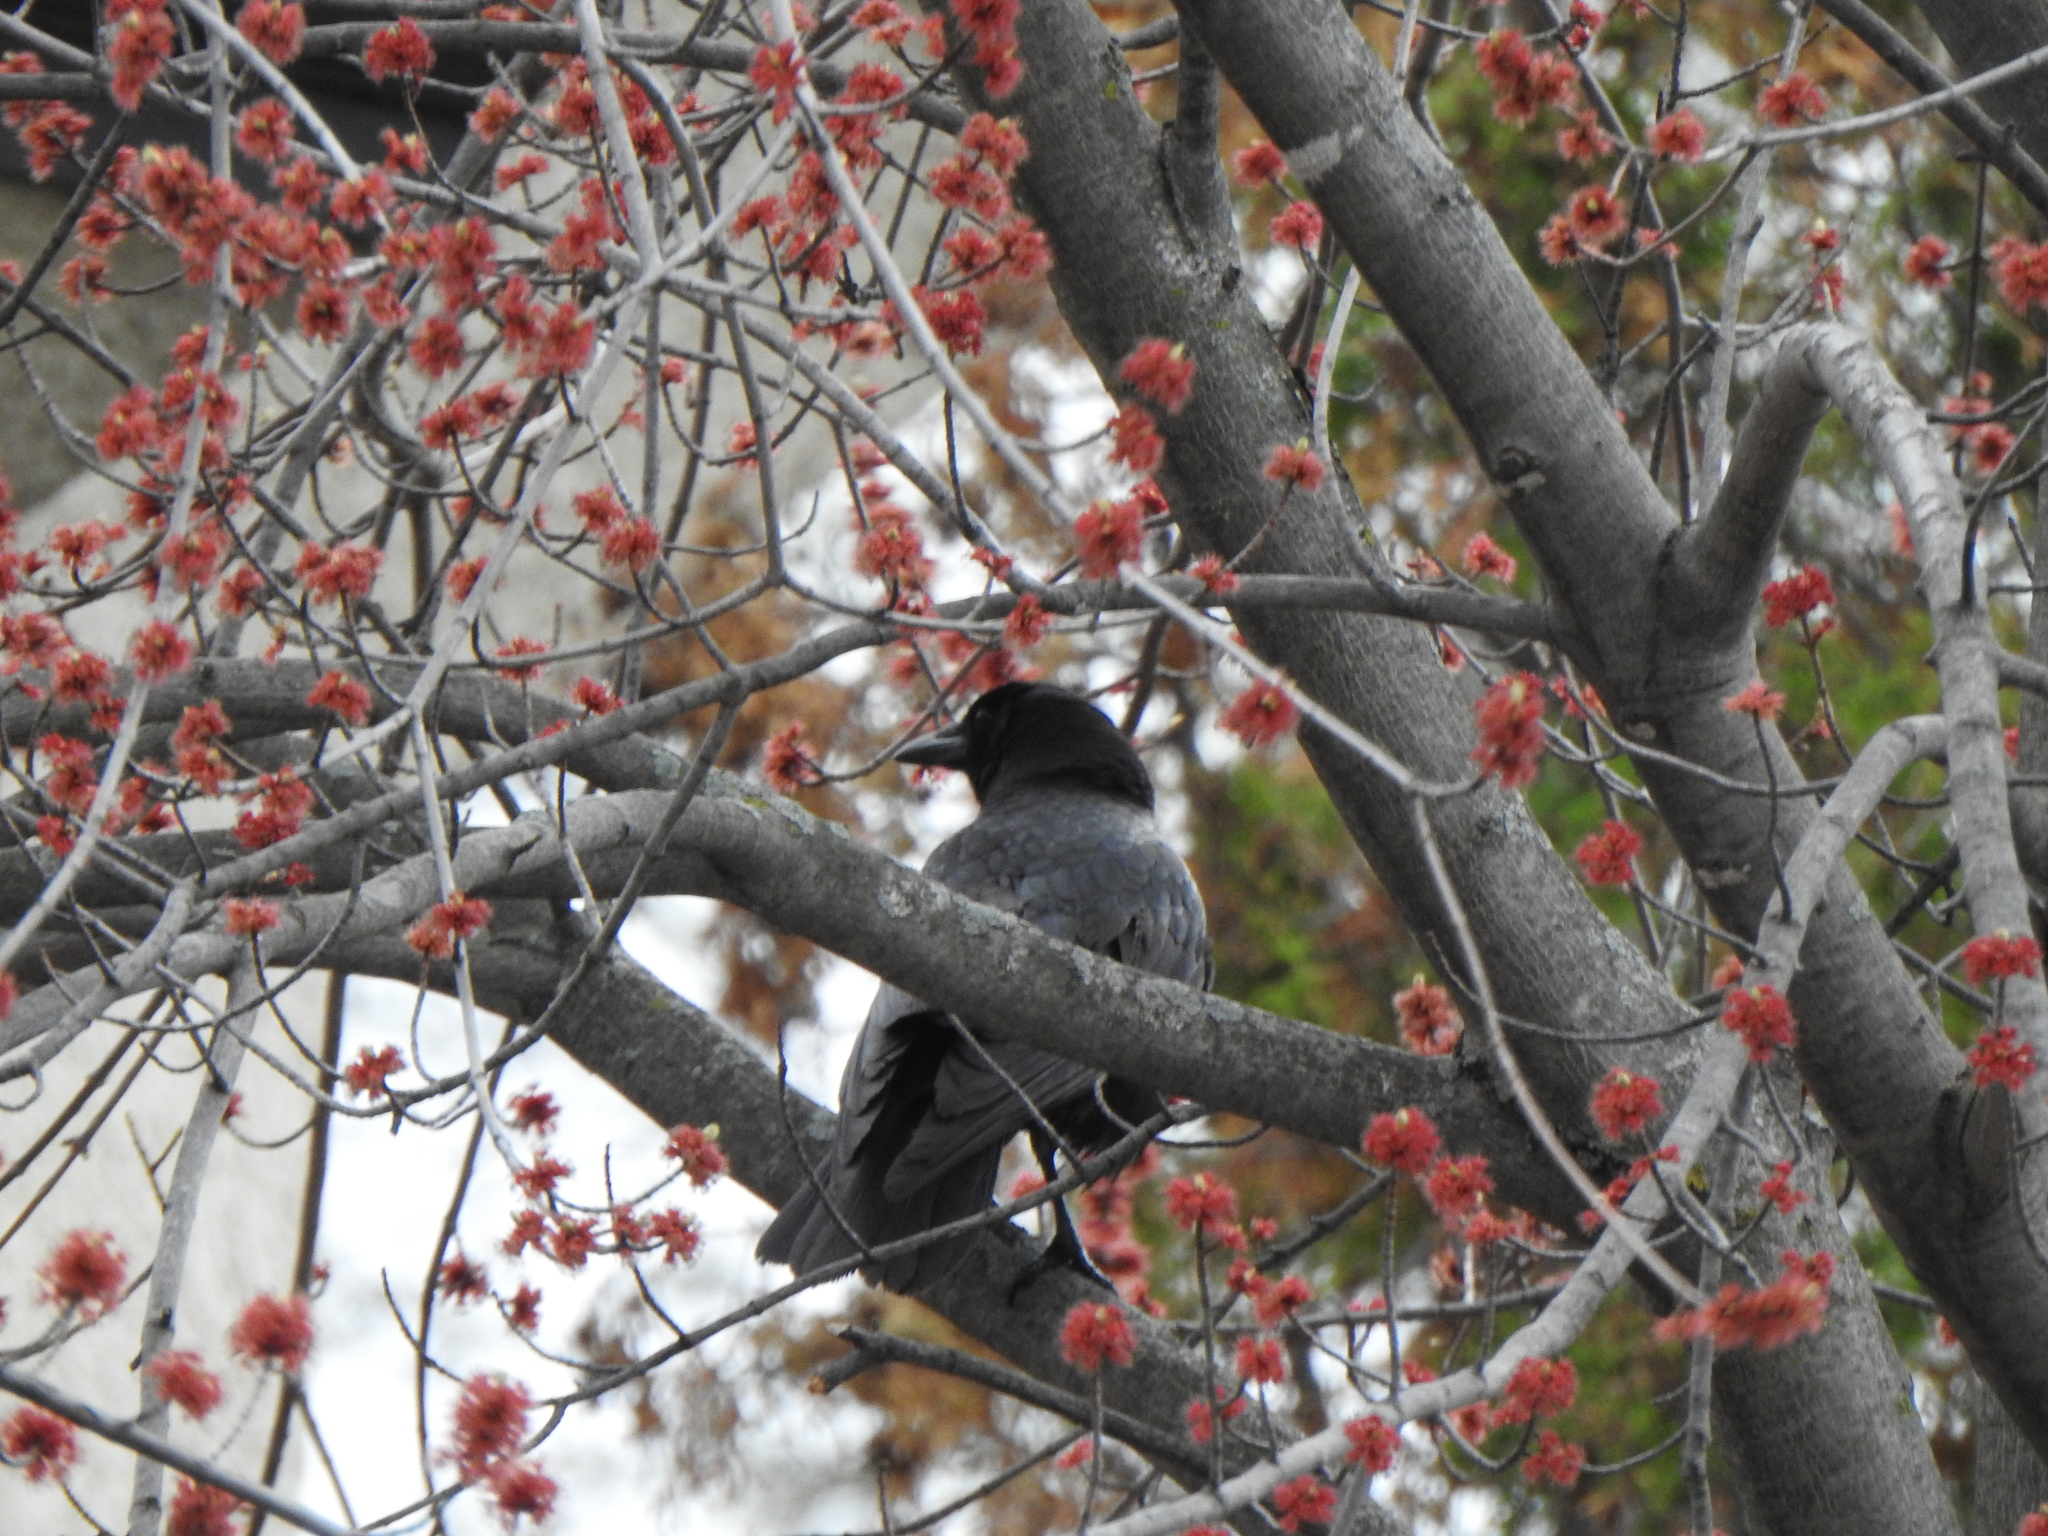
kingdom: Animalia
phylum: Chordata
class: Aves
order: Passeriformes
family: Corvidae
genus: Corvus
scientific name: Corvus brachyrhynchos
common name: American crow
